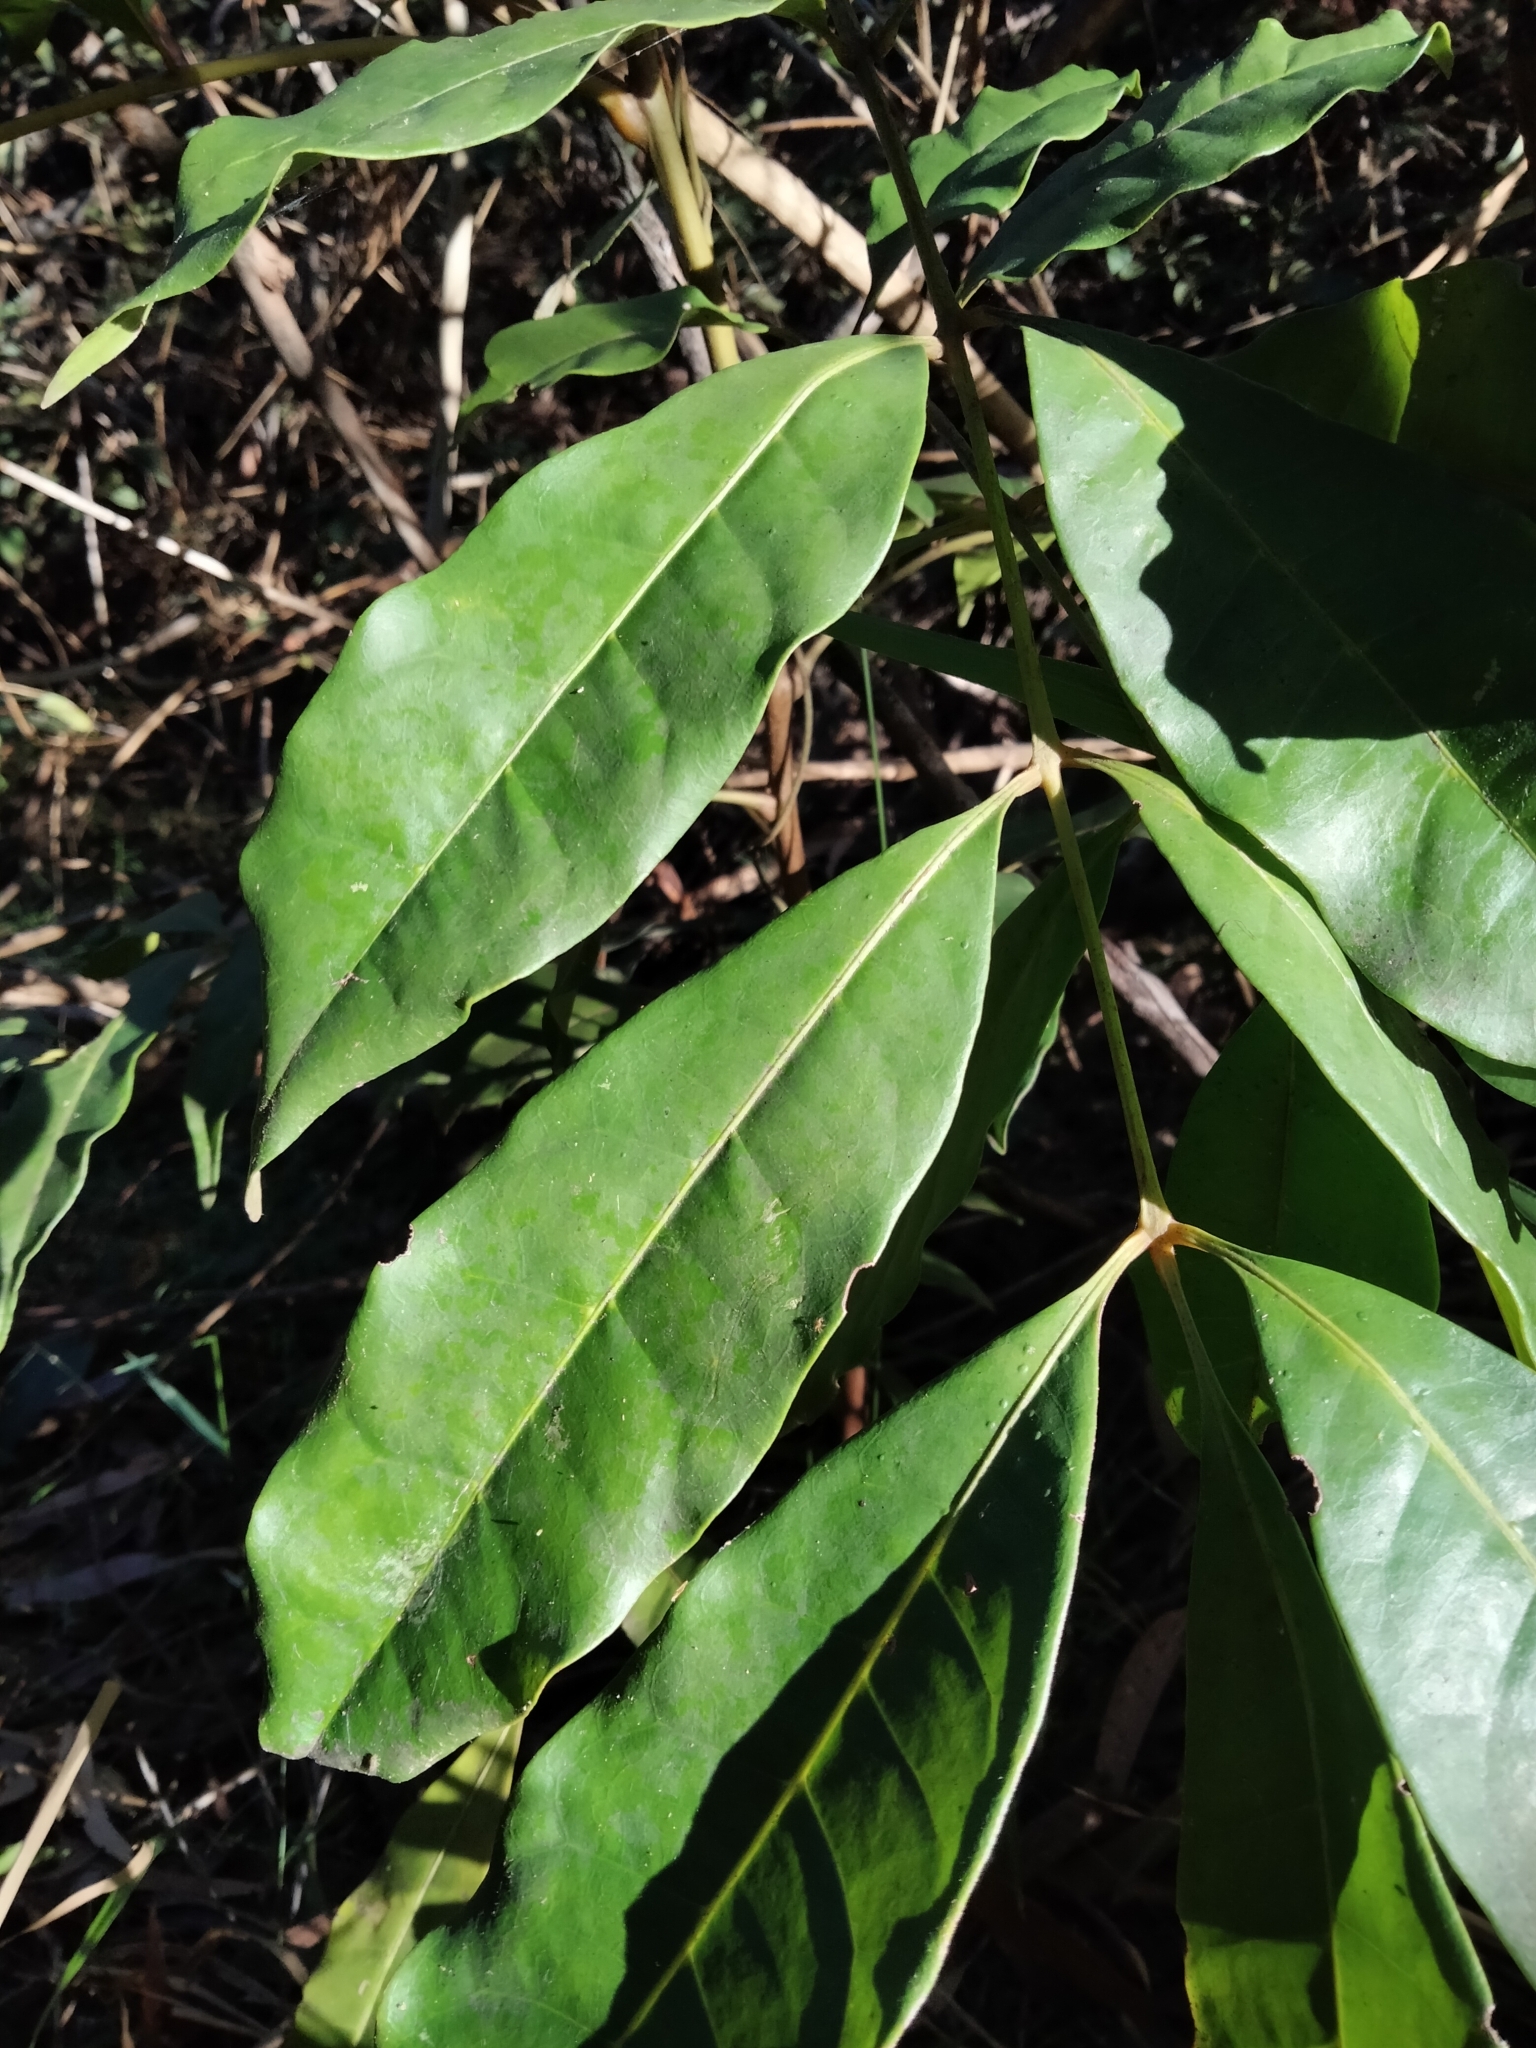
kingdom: Plantae
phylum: Tracheophyta
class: Magnoliopsida
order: Sapindales
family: Meliaceae
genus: Synoum
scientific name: Synoum glandulosum
